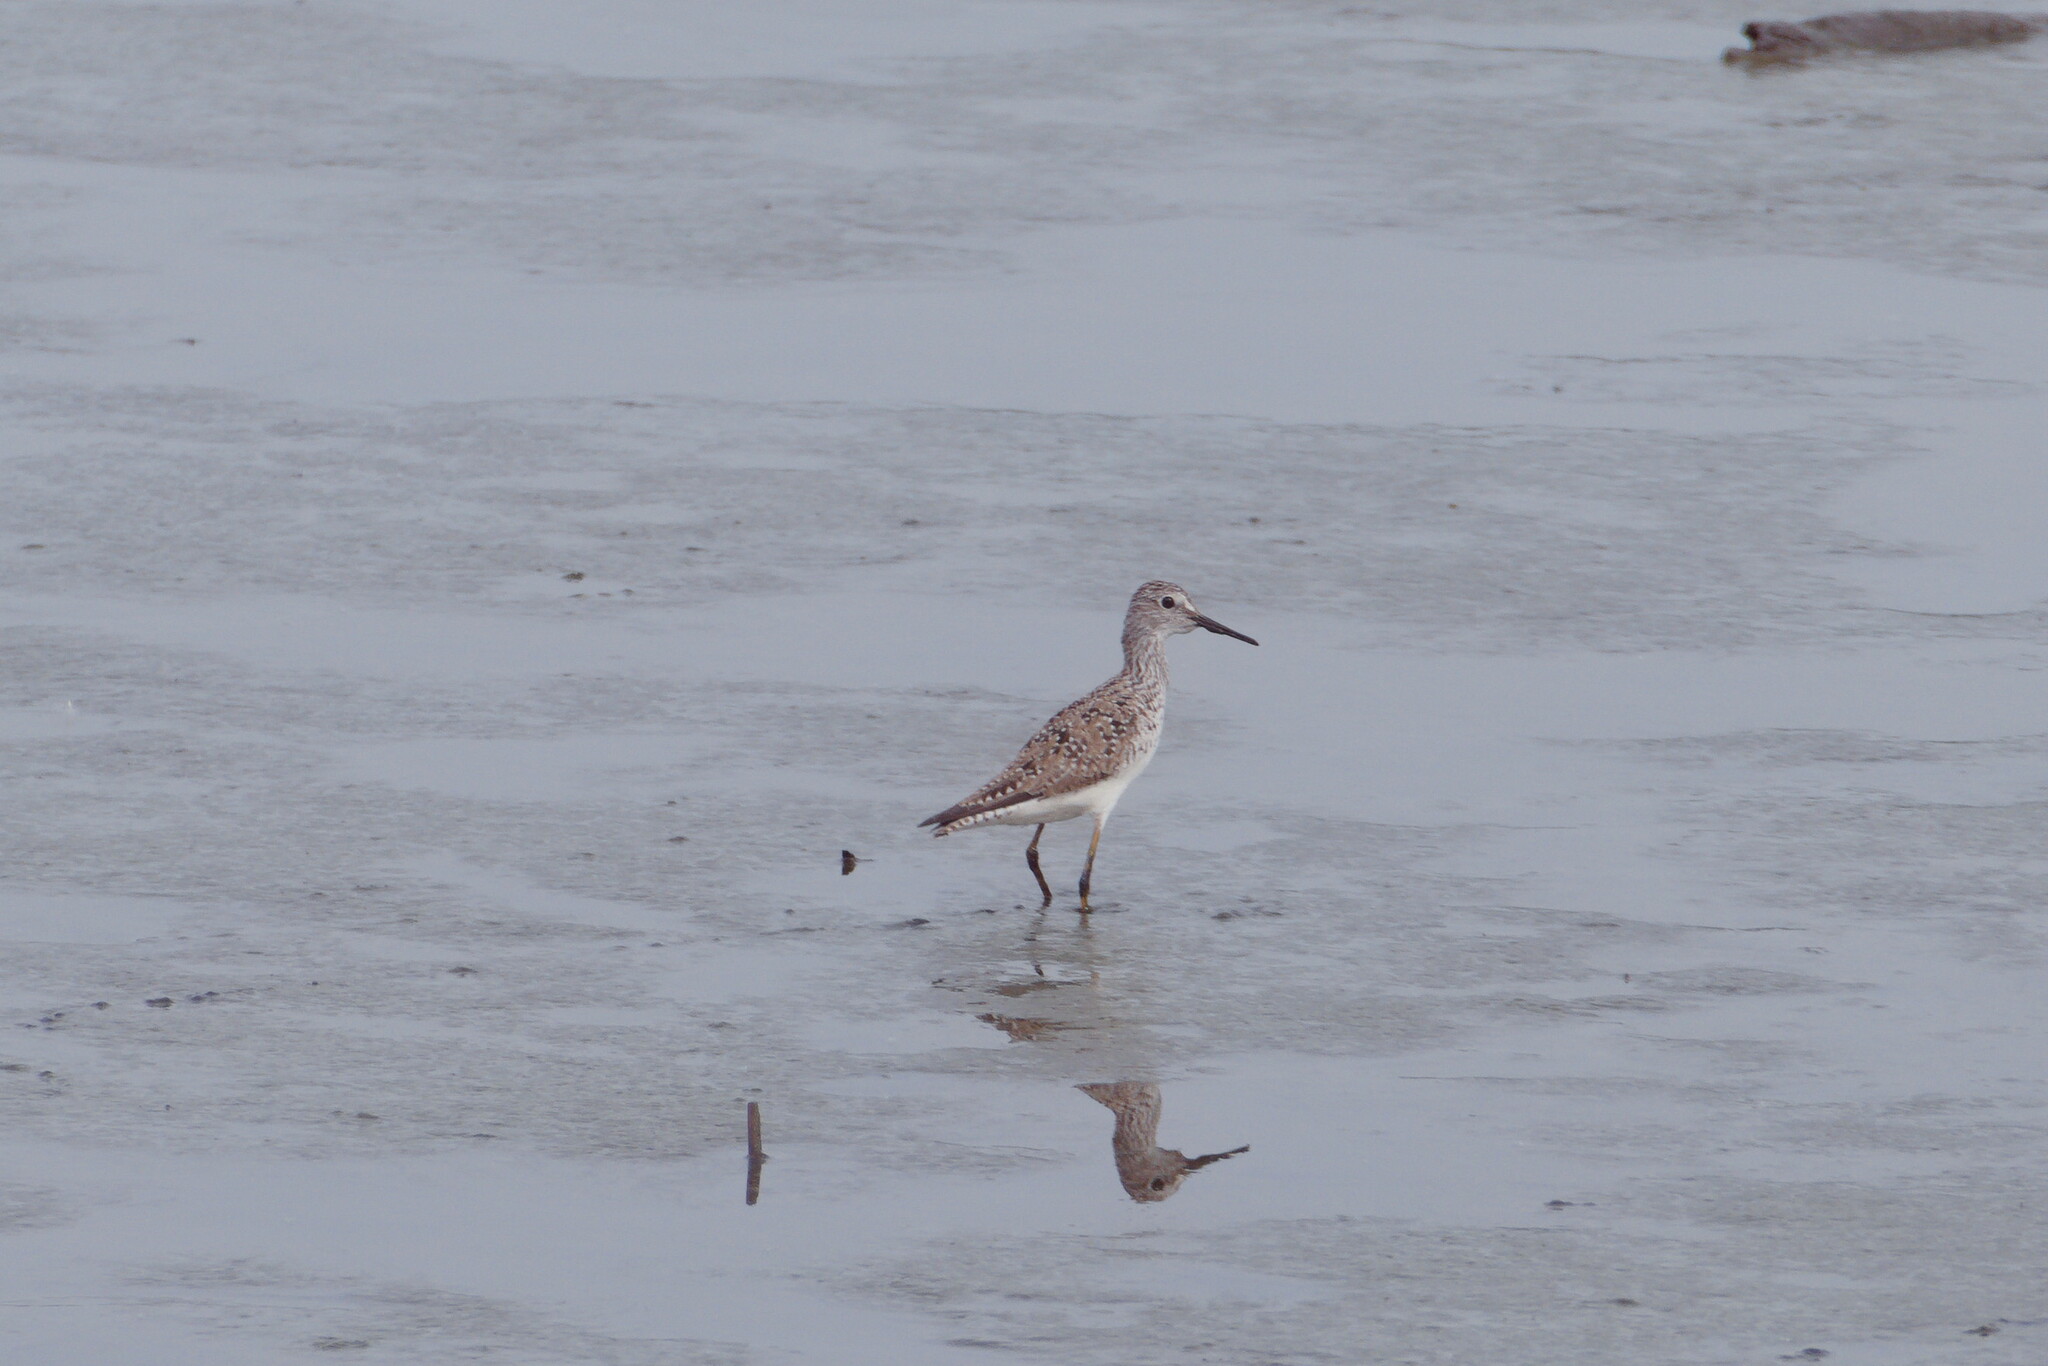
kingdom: Animalia
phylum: Chordata
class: Aves
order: Charadriiformes
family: Scolopacidae
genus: Tringa
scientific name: Tringa flavipes
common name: Lesser yellowlegs
